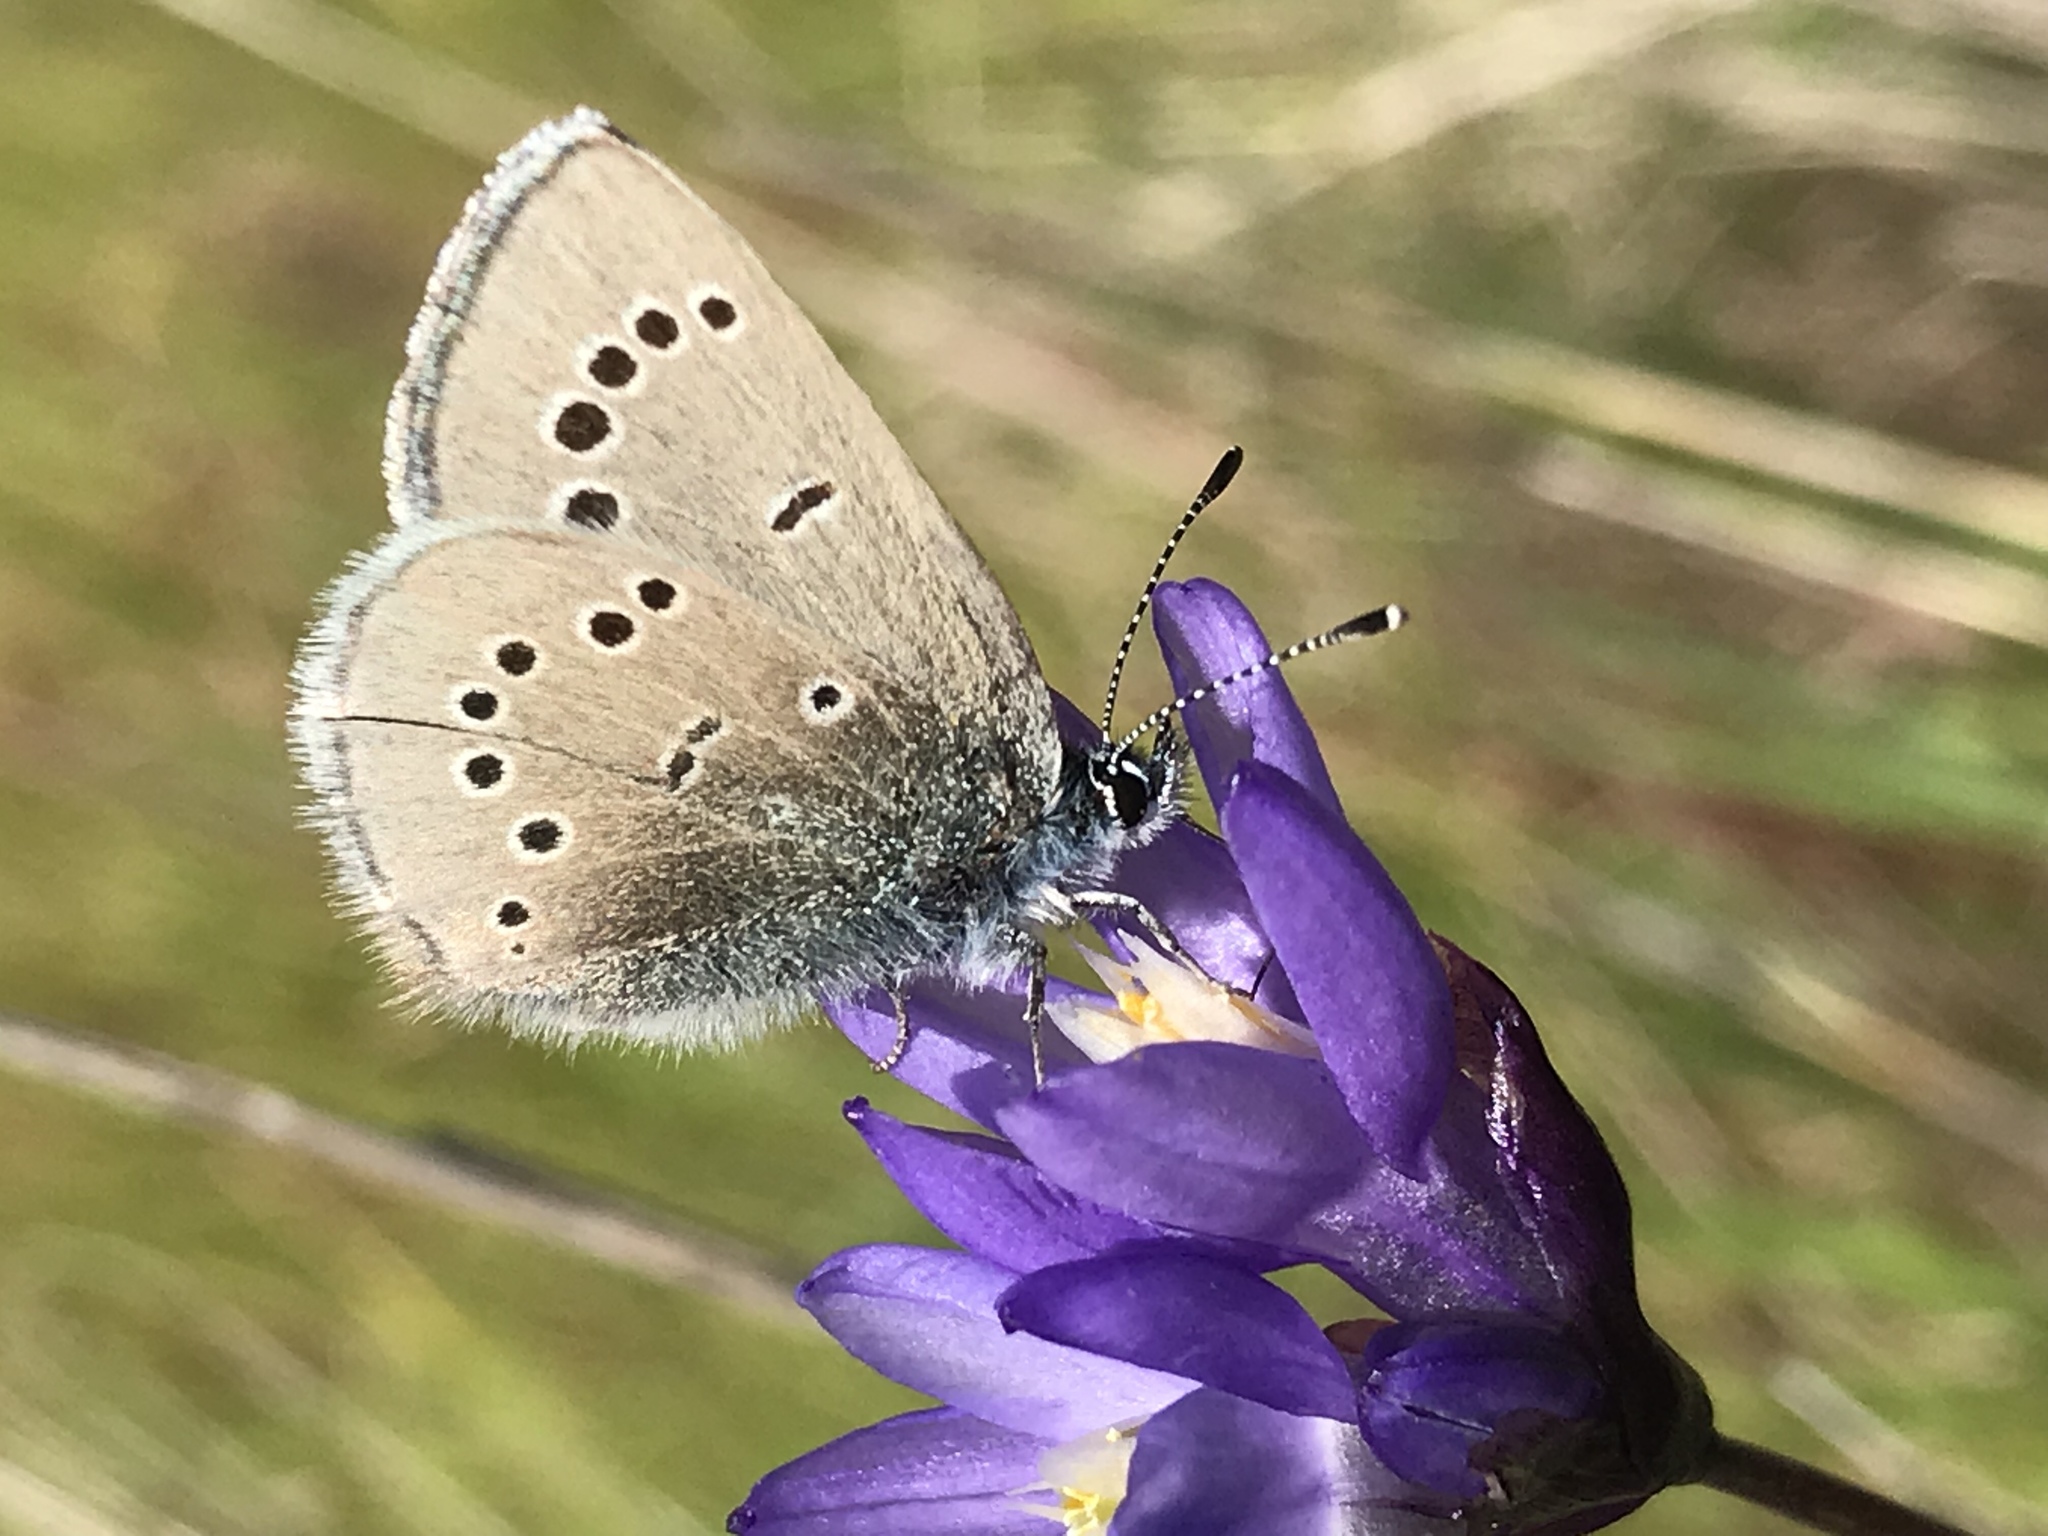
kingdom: Animalia
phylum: Arthropoda
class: Insecta
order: Lepidoptera
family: Lycaenidae
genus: Glaucopsyche
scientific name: Glaucopsyche lygdamus
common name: Silvery blue
